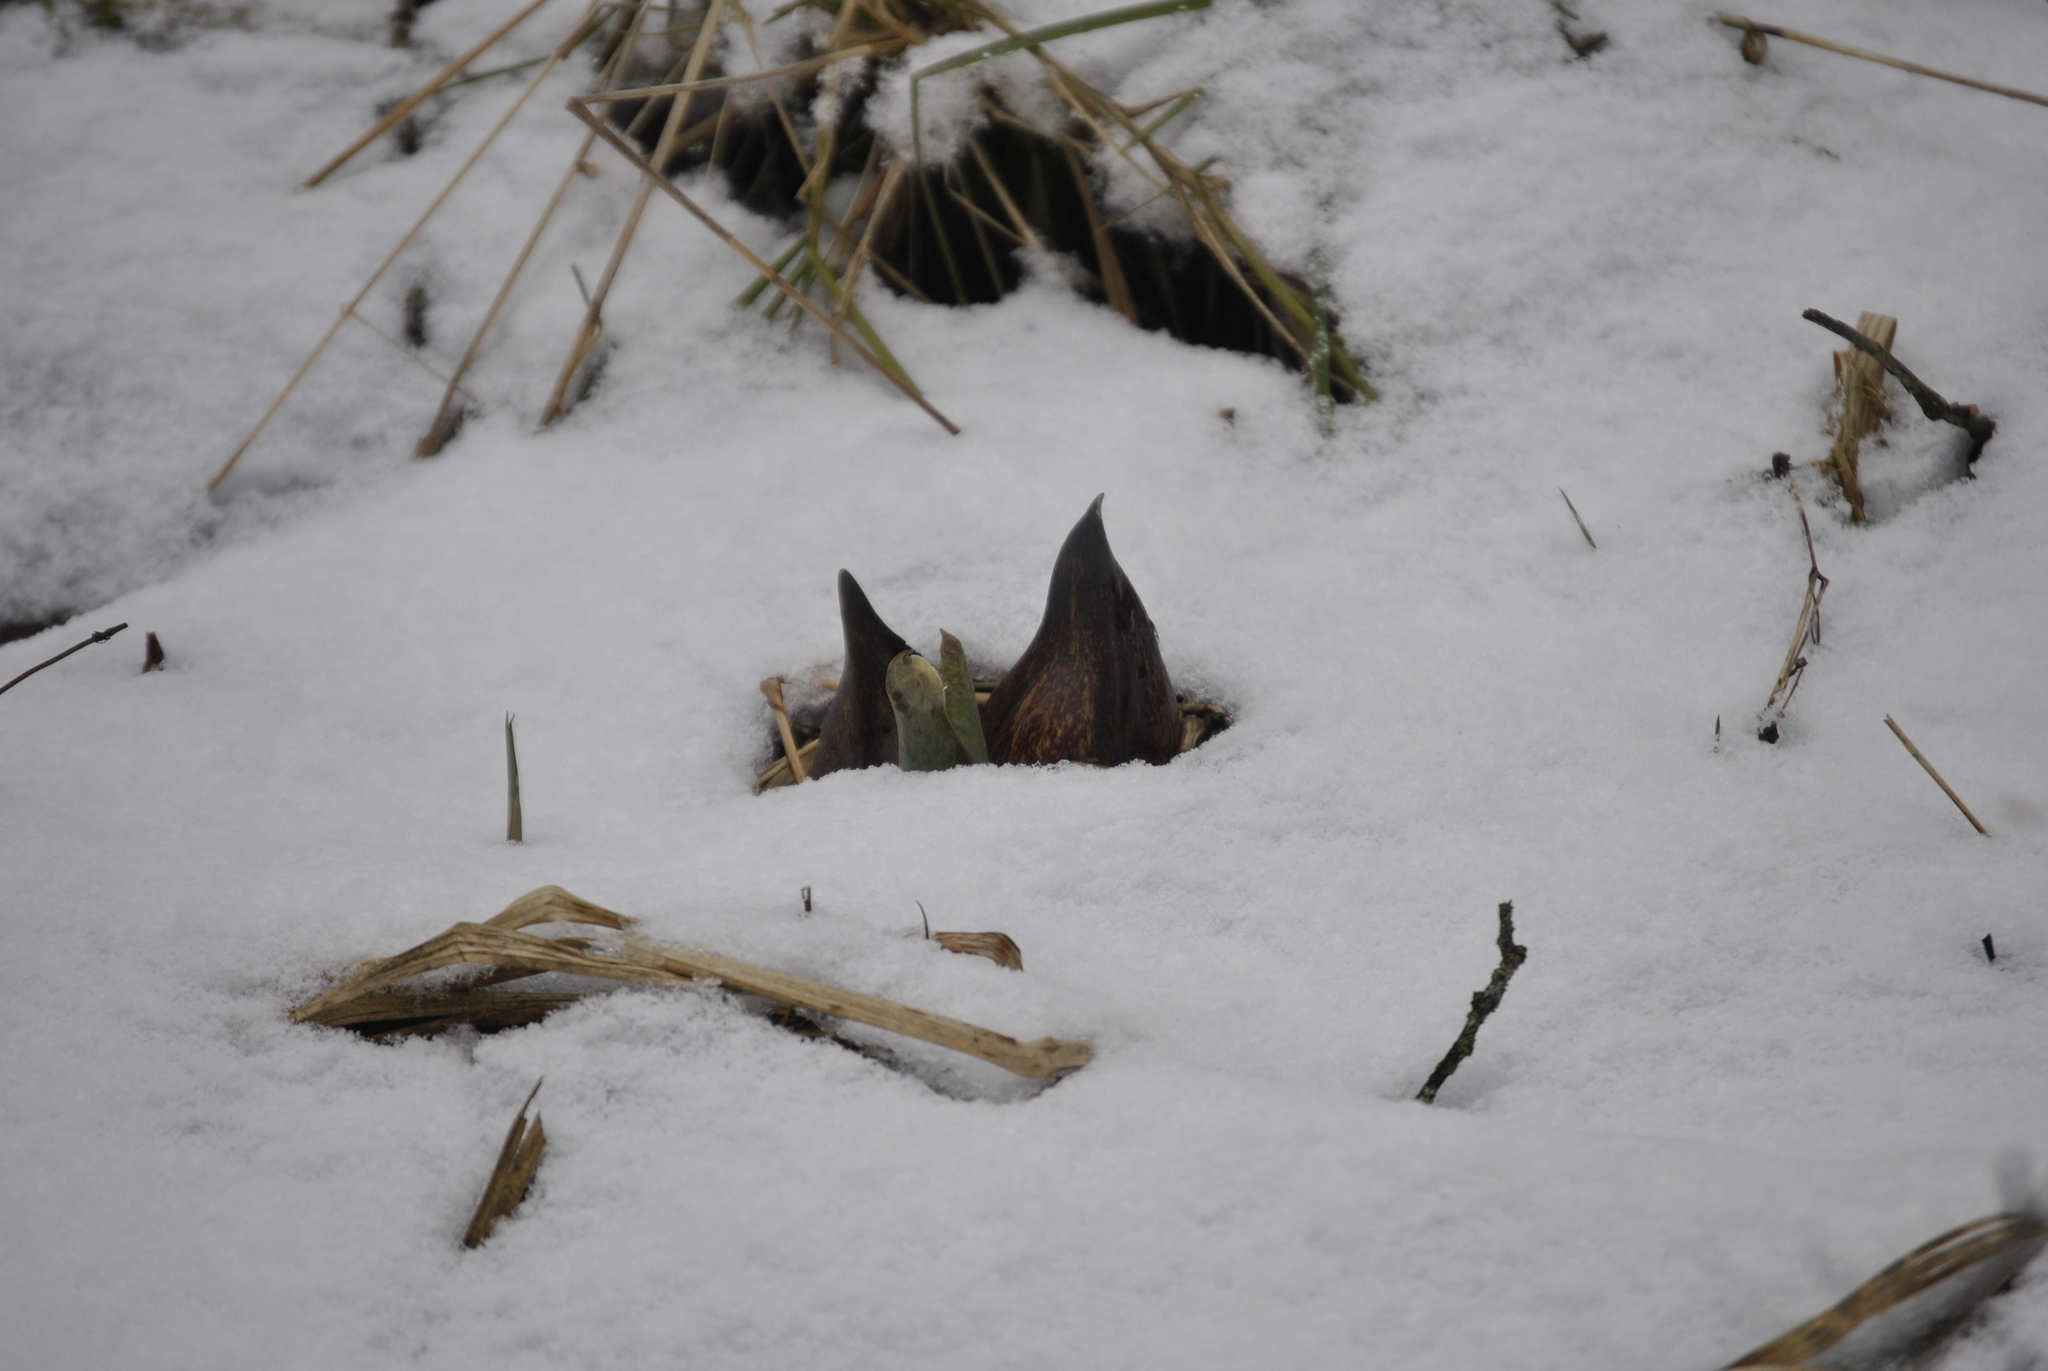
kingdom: Plantae
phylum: Tracheophyta
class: Liliopsida
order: Alismatales
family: Araceae
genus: Symplocarpus
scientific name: Symplocarpus foetidus
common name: Eastern skunk cabbage
